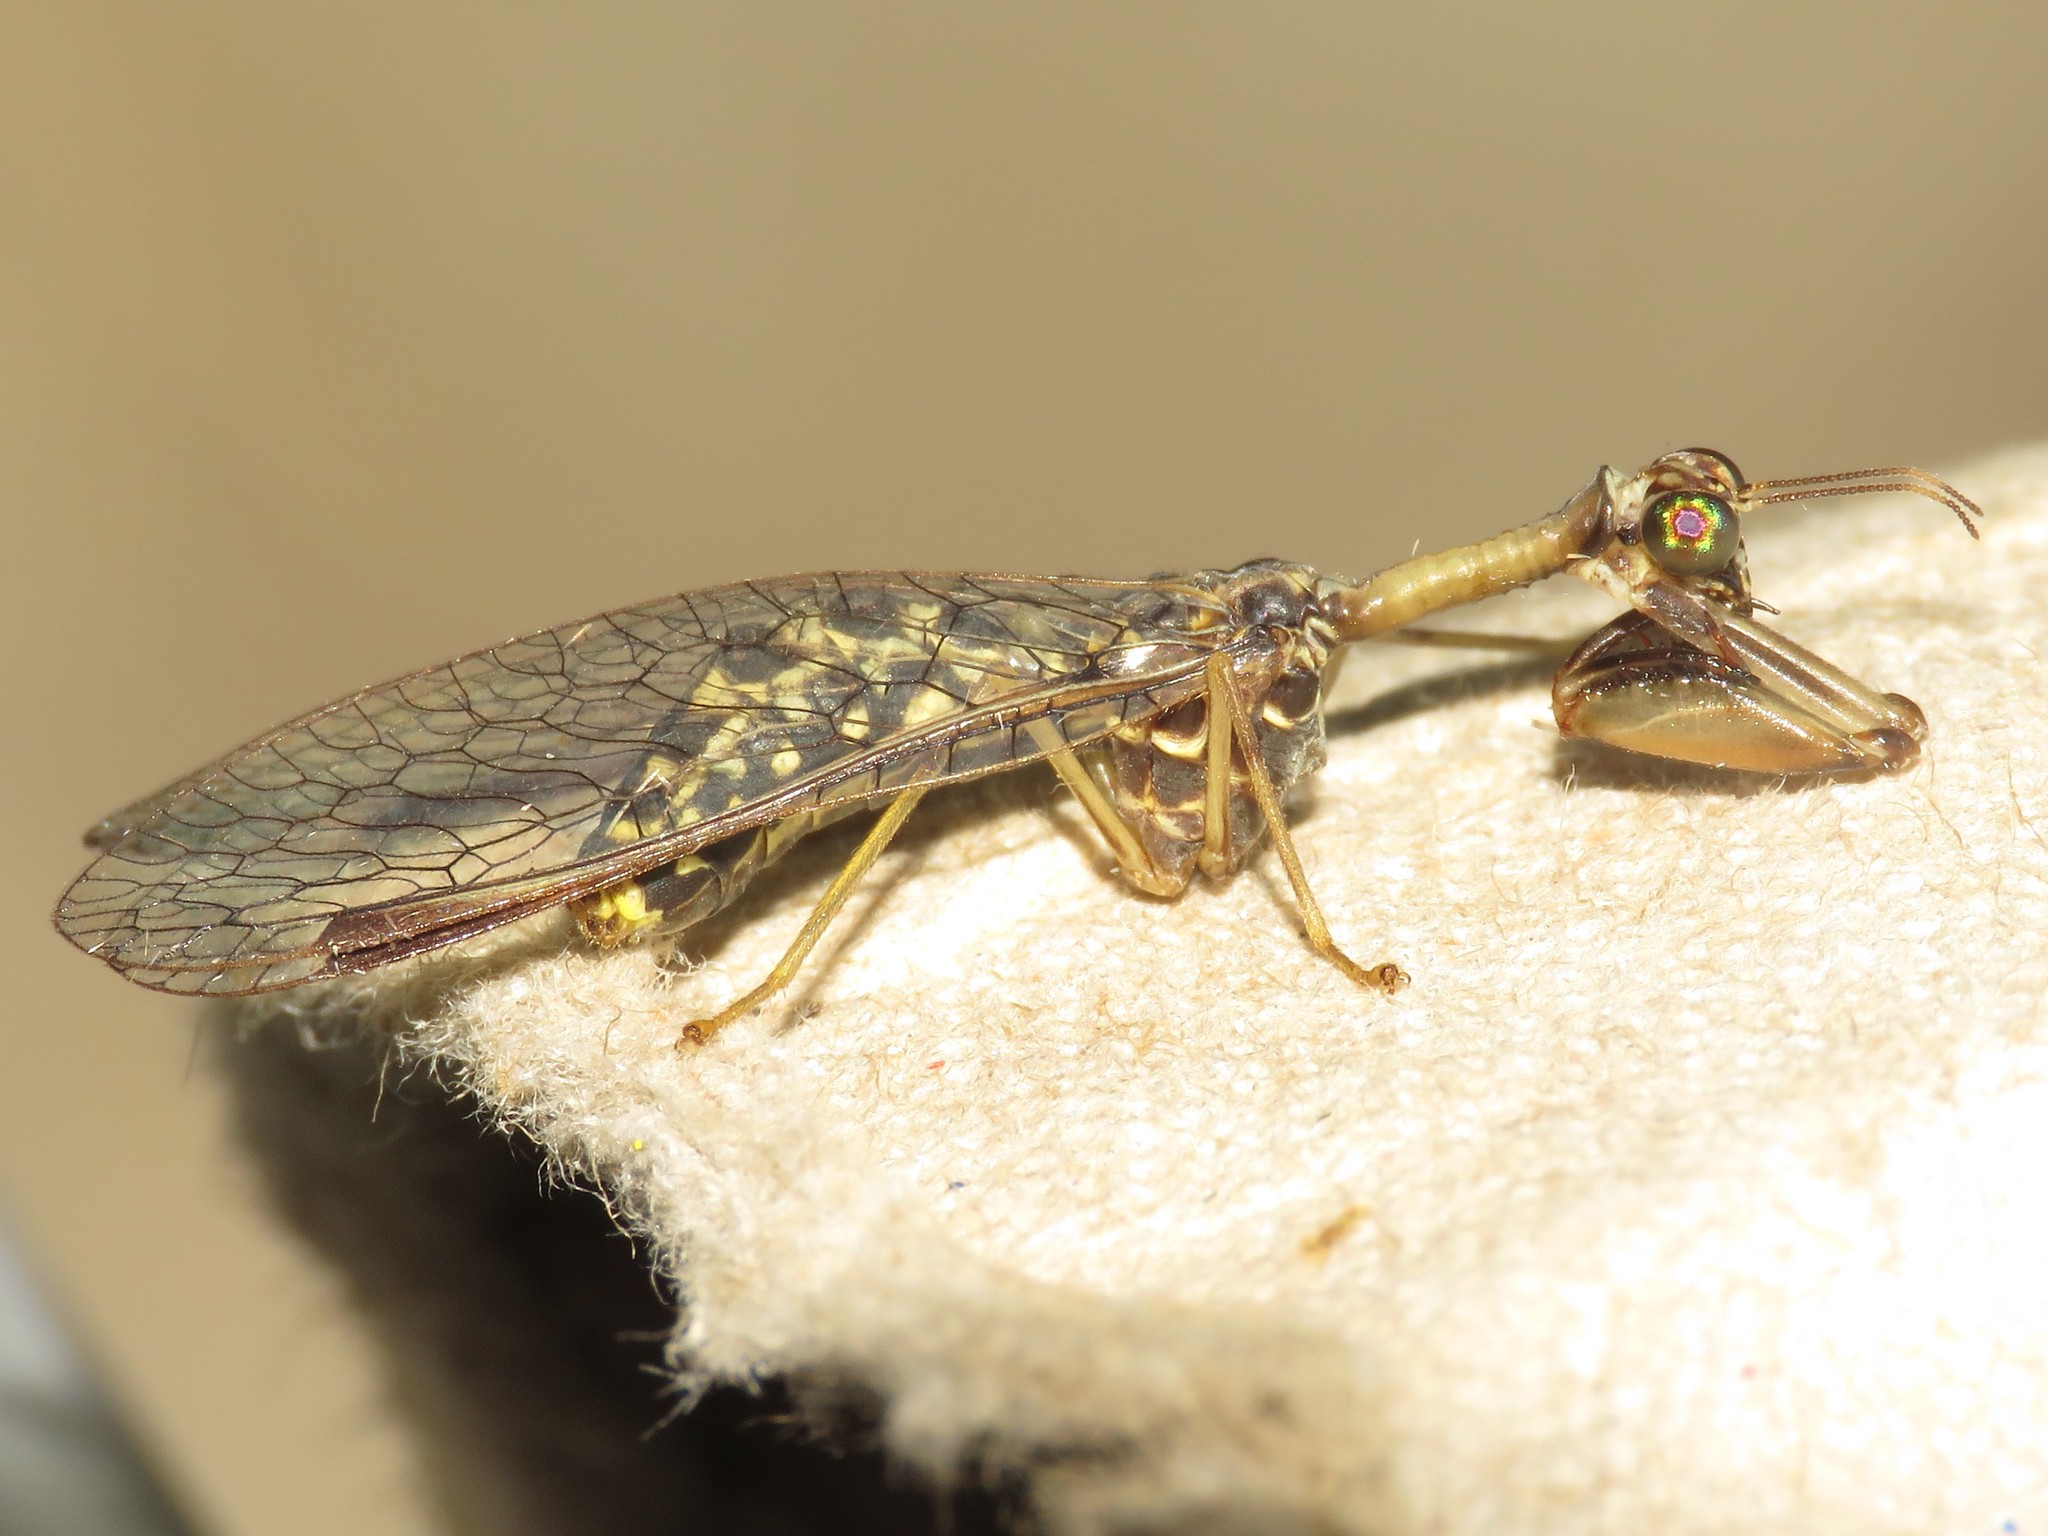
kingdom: Animalia
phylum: Arthropoda
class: Insecta
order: Neuroptera
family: Mantispidae
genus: Dicromantispa
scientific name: Dicromantispa sayi
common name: Say's mantidfly
